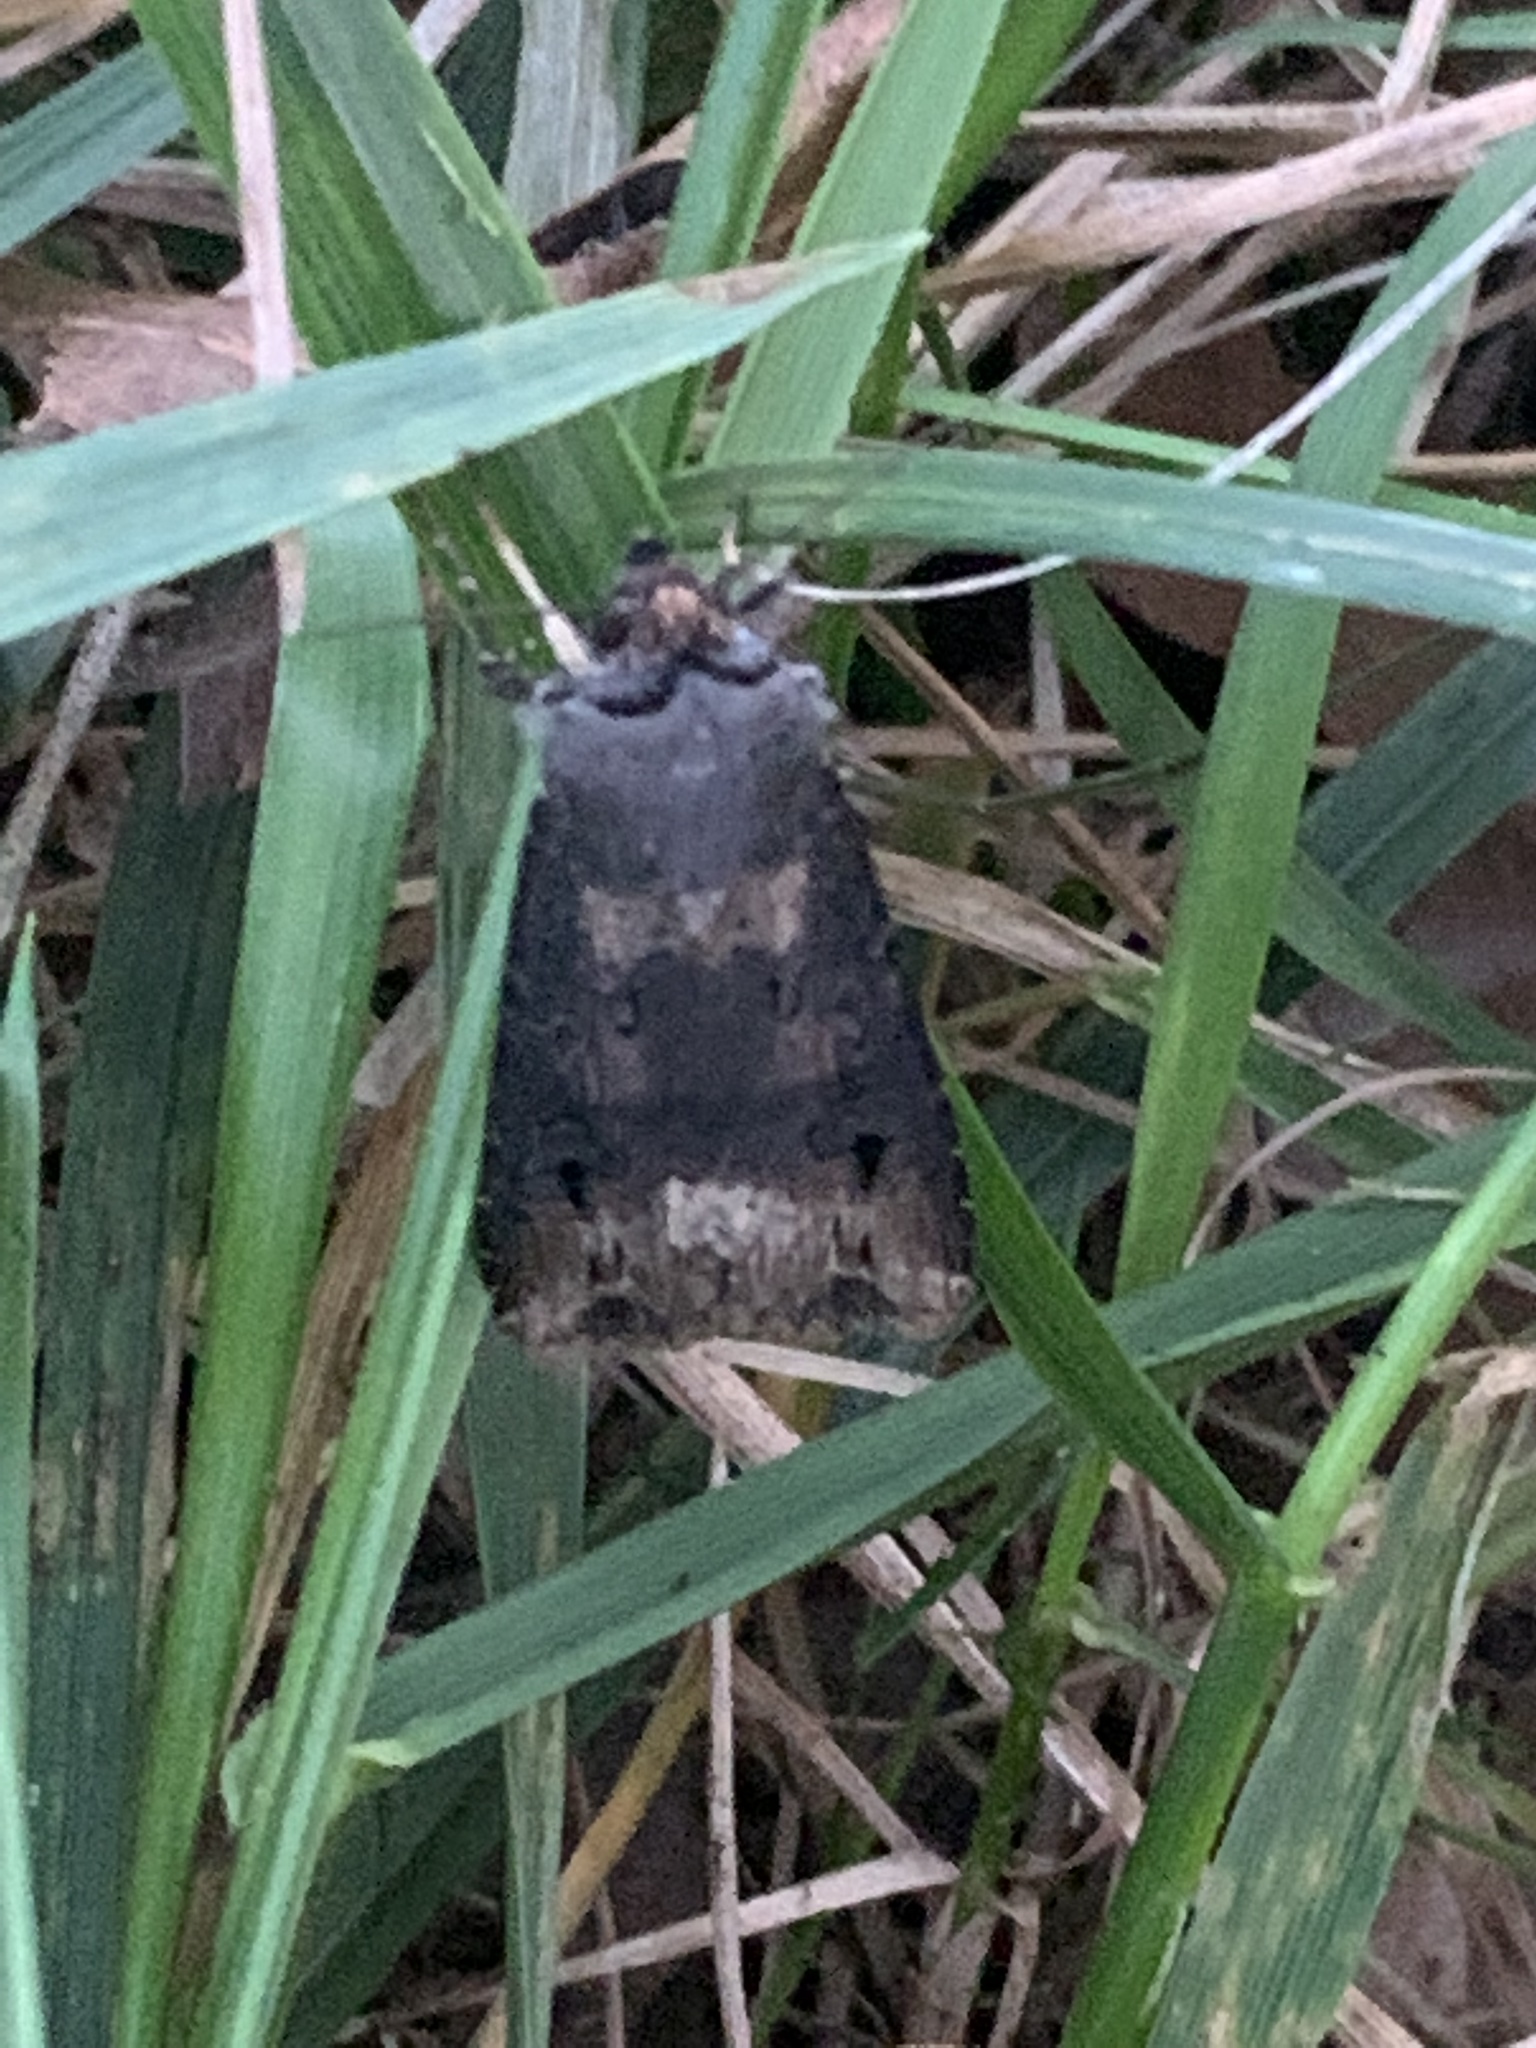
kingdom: Animalia
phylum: Arthropoda
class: Insecta
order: Lepidoptera
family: Noctuidae
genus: Agrotis
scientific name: Agrotis ipsilon
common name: Dark sword-grass
